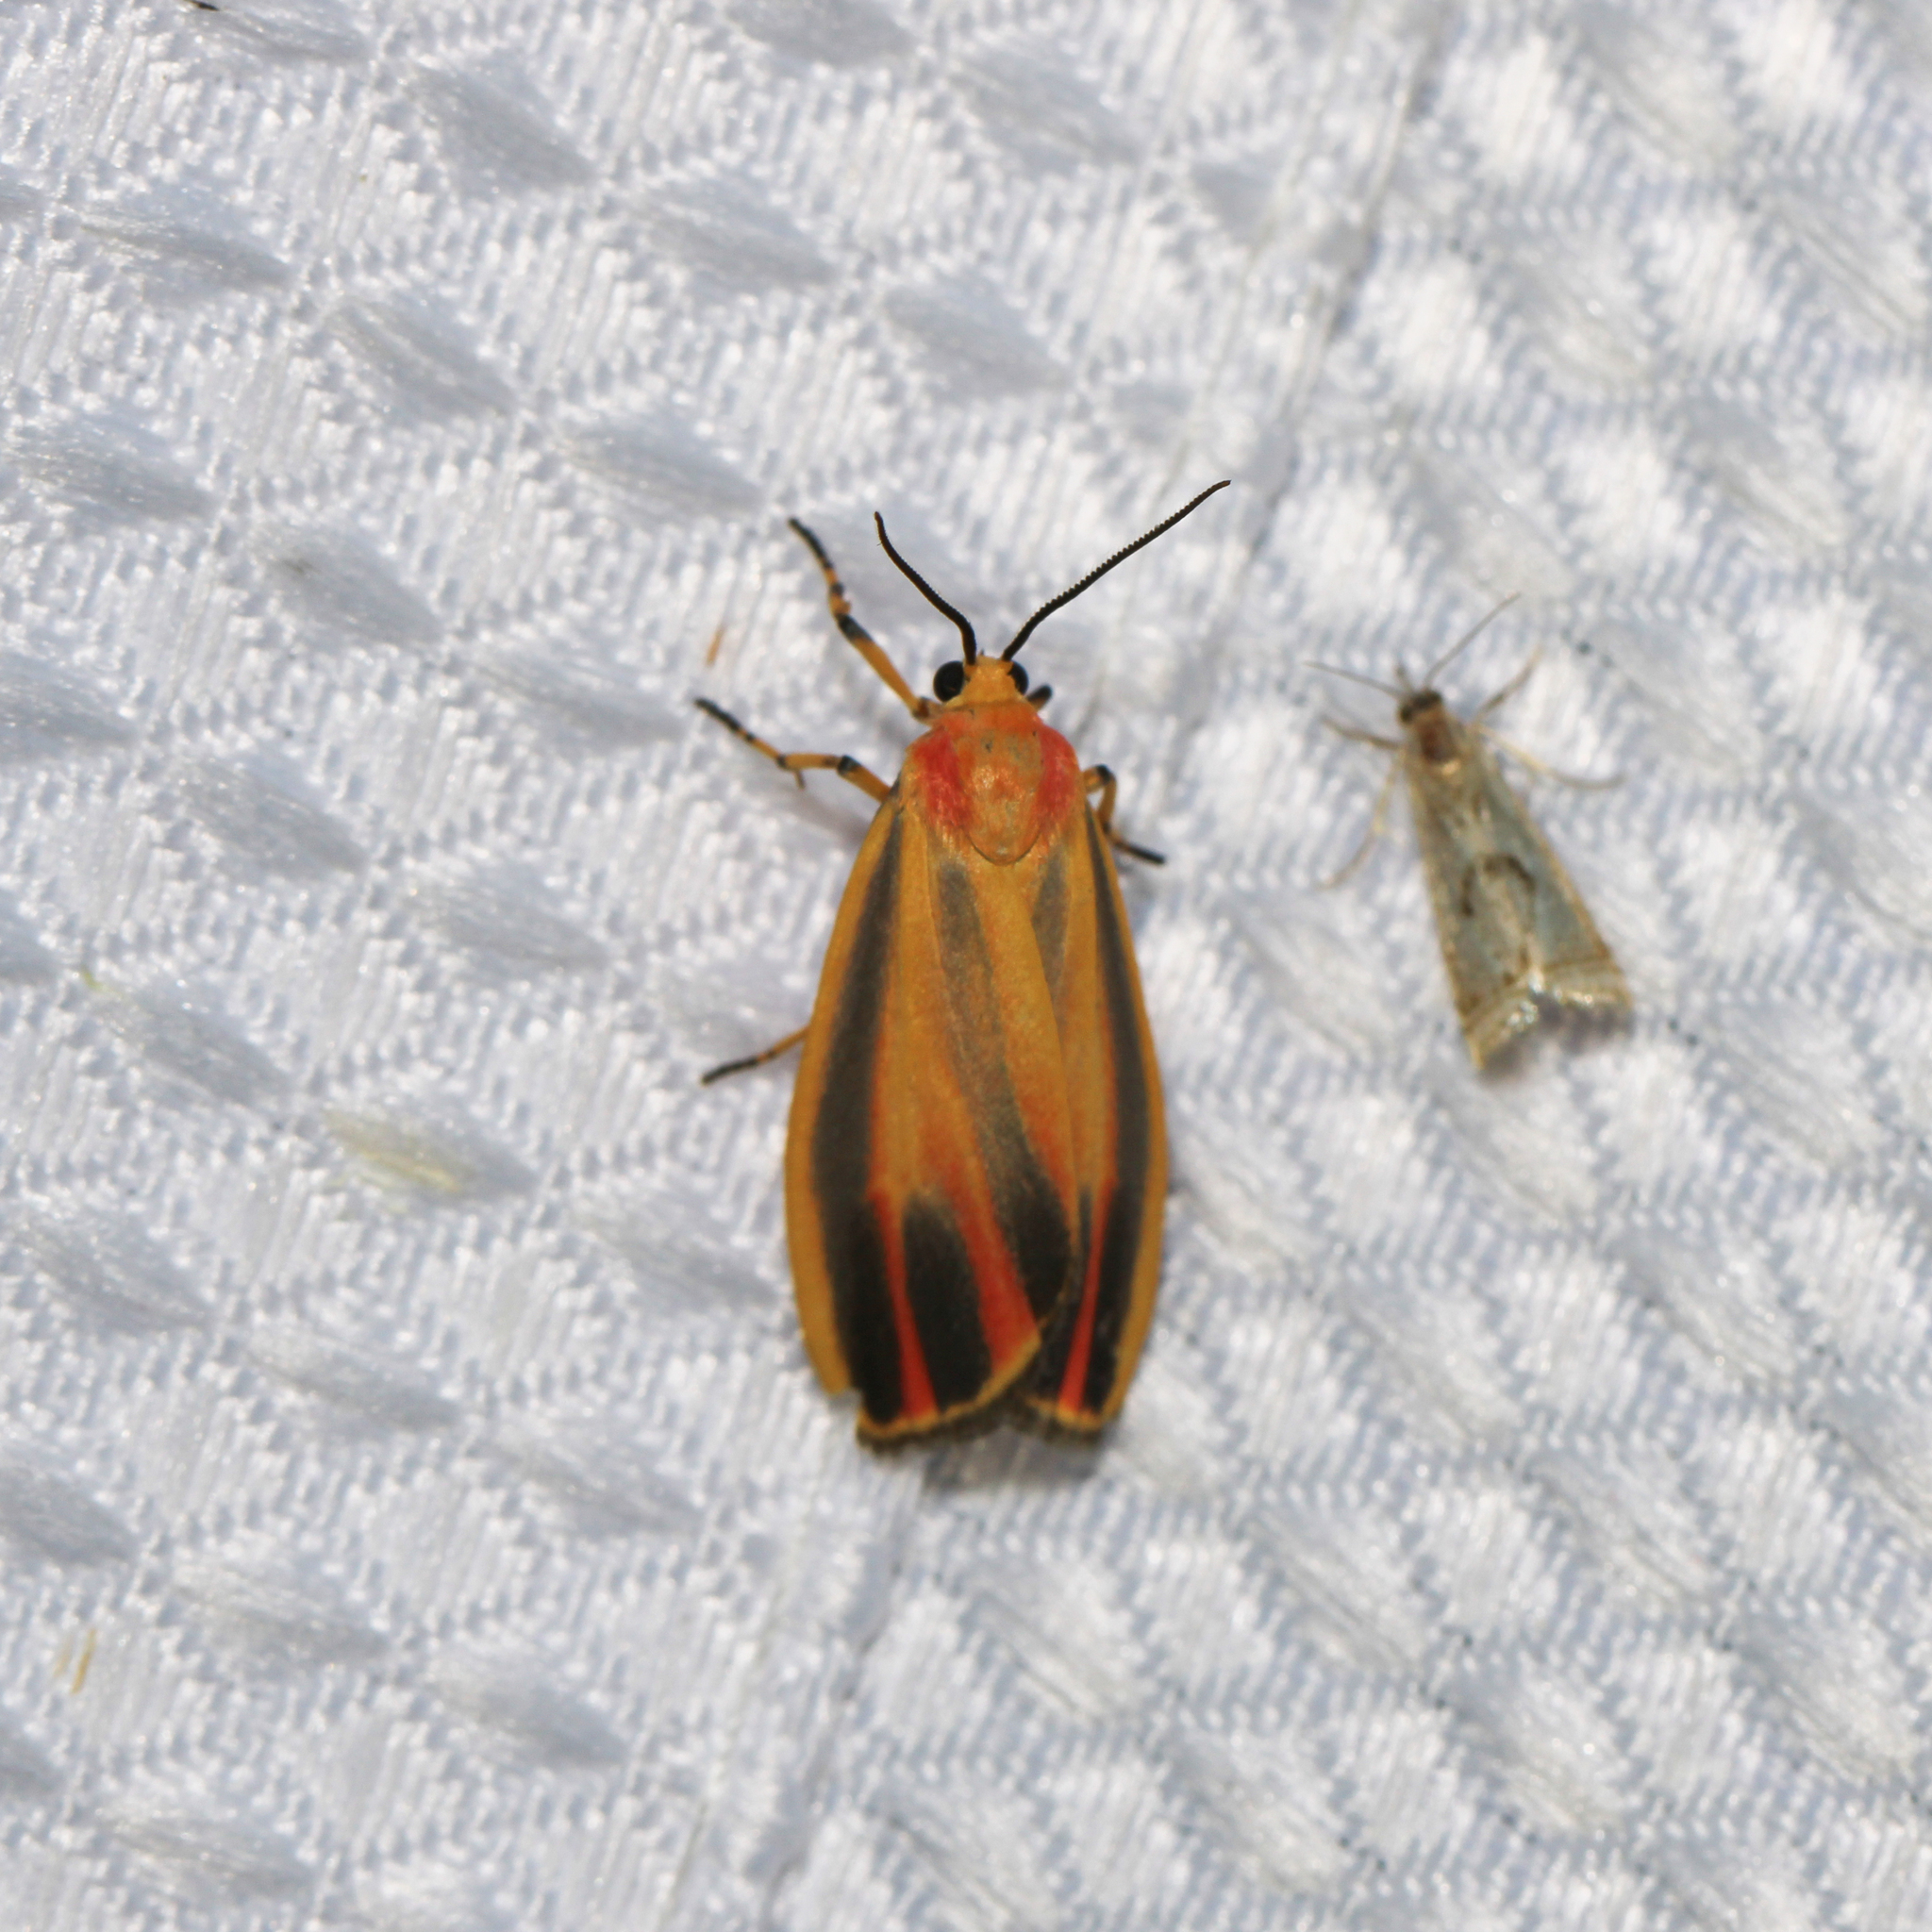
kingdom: Animalia
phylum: Arthropoda
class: Insecta
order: Lepidoptera
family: Erebidae
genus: Hypoprepia
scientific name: Hypoprepia fucosa
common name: Painted lichen moth
